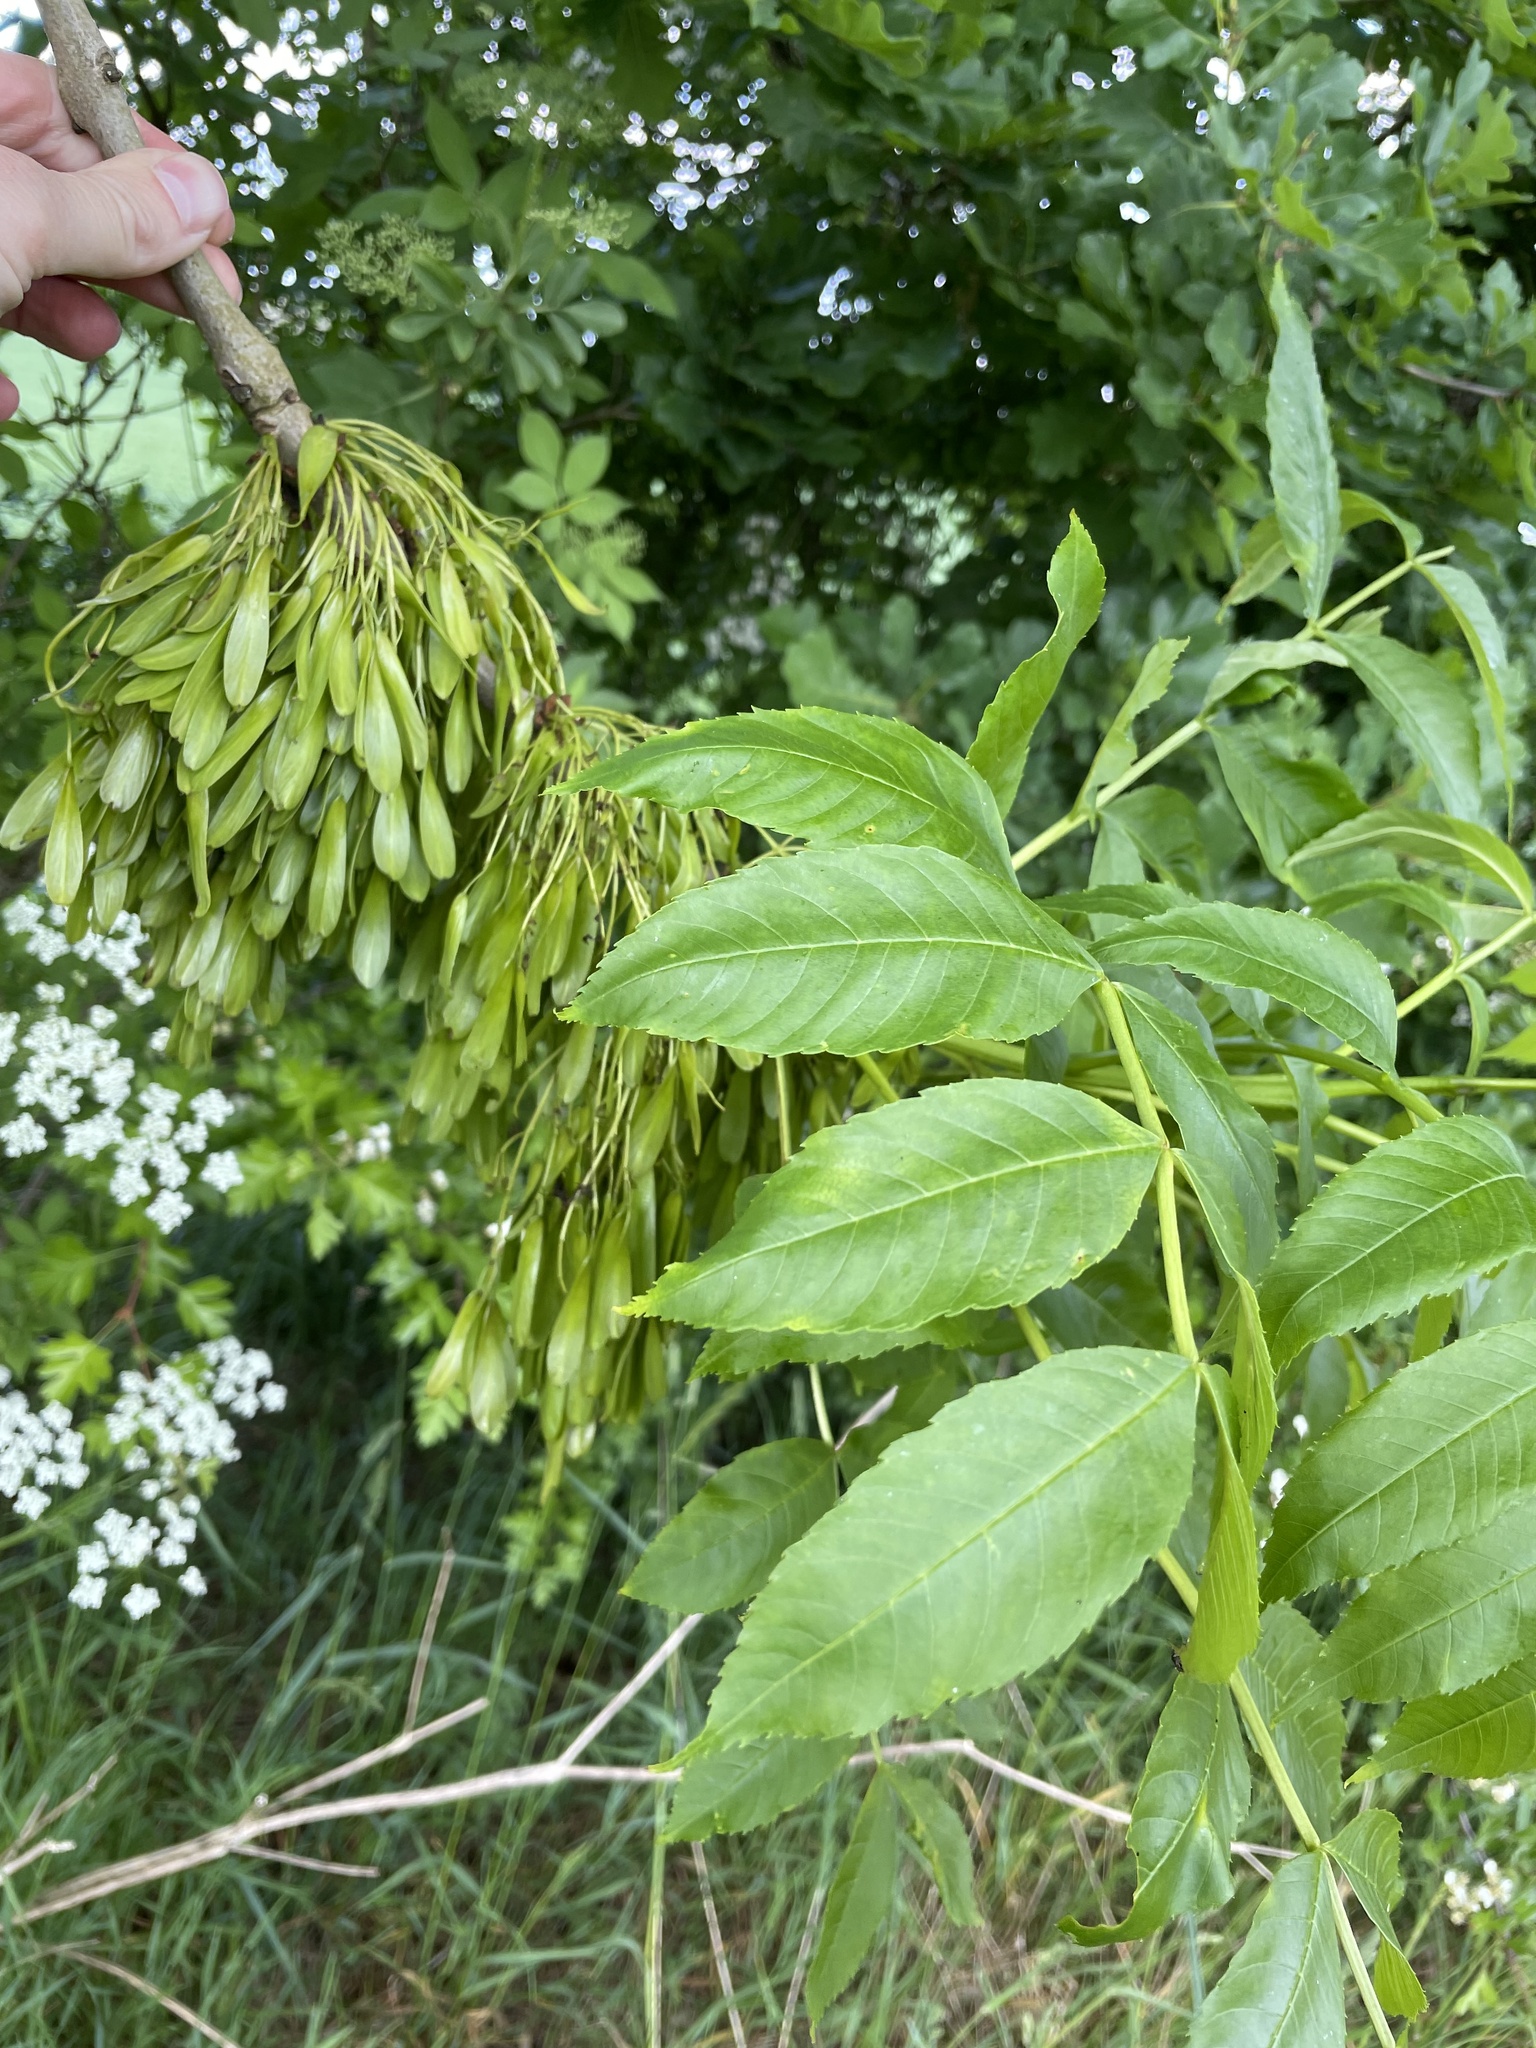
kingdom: Plantae
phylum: Tracheophyta
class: Magnoliopsida
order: Lamiales
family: Oleaceae
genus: Fraxinus
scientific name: Fraxinus excelsior
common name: European ash
